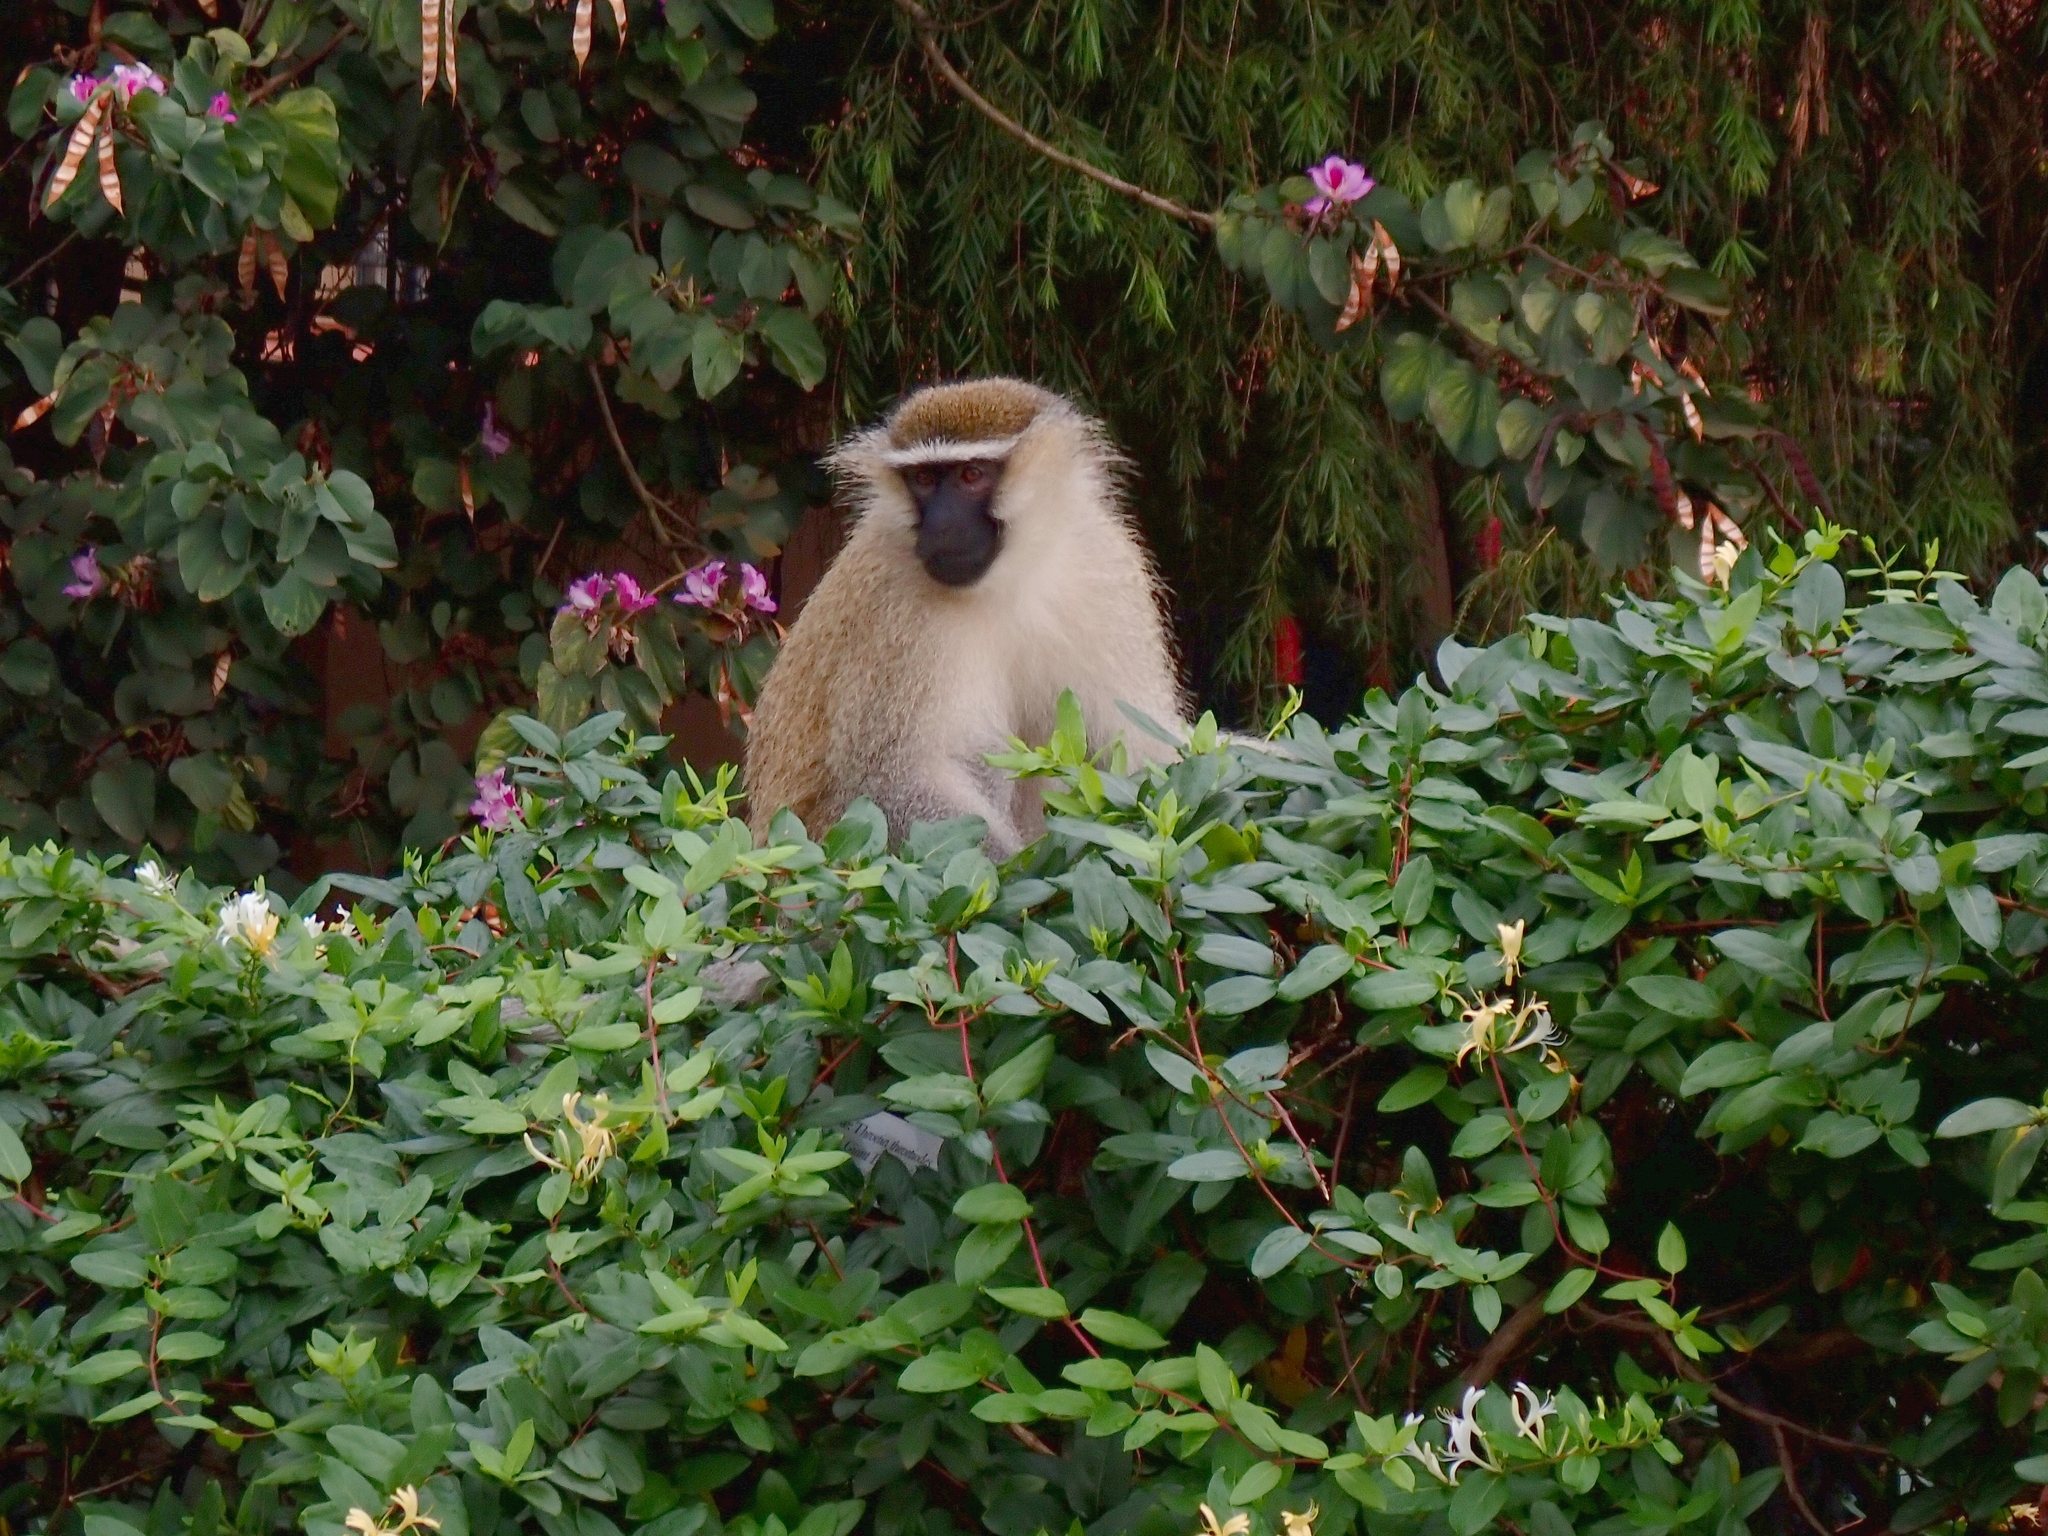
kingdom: Animalia
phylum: Chordata
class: Mammalia
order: Primates
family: Cercopithecidae
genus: Chlorocebus
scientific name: Chlorocebus tantalus
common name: Tantalus monkey
